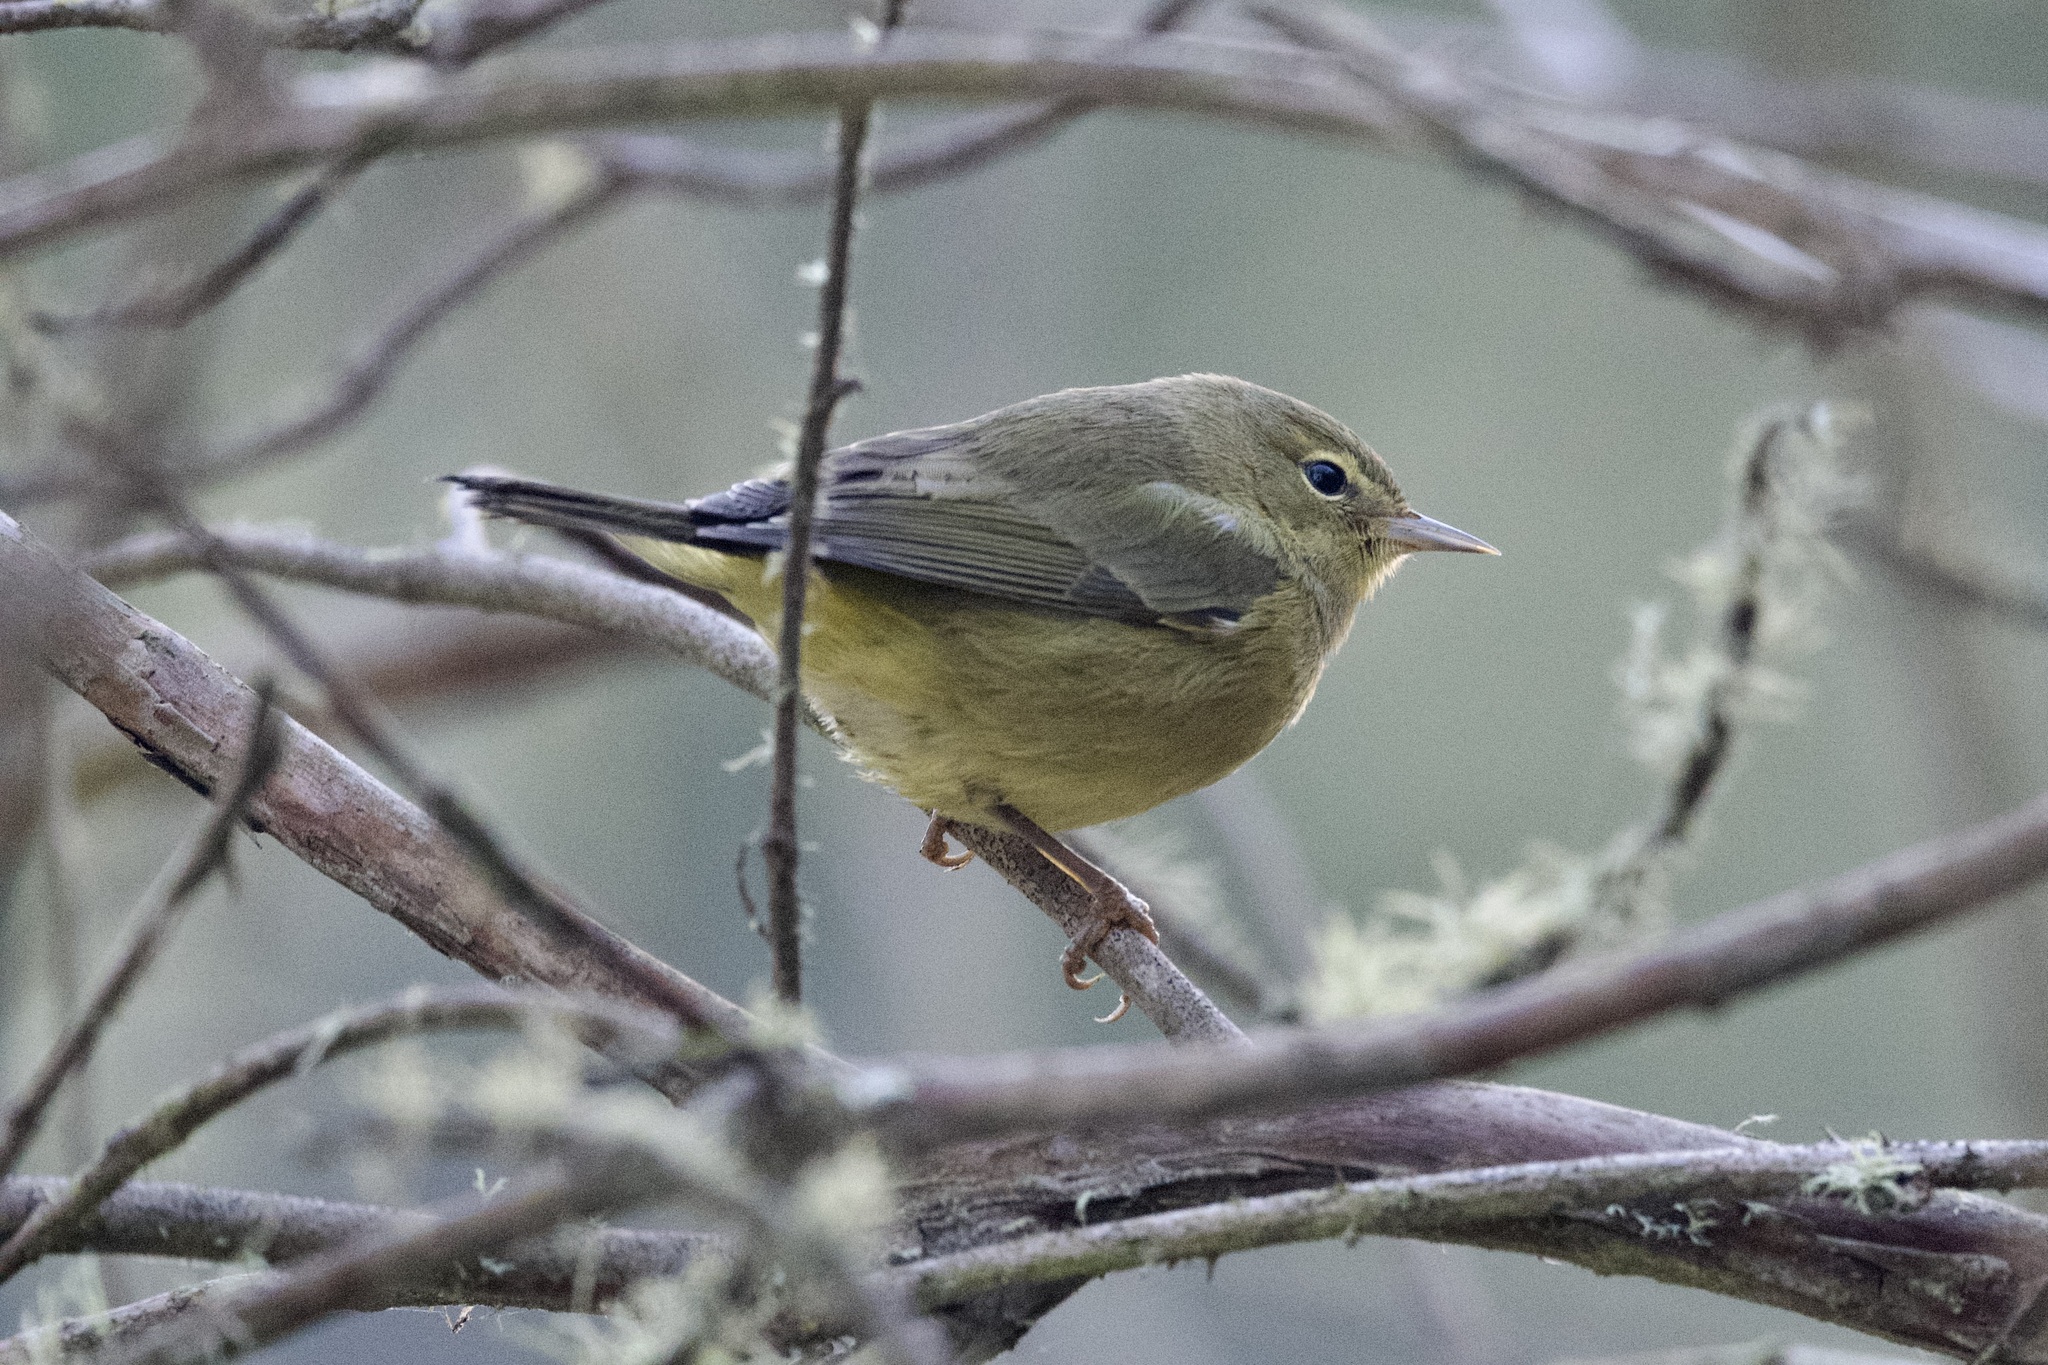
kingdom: Animalia
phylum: Chordata
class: Aves
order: Passeriformes
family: Parulidae
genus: Leiothlypis
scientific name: Leiothlypis celata
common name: Orange-crowned warbler
